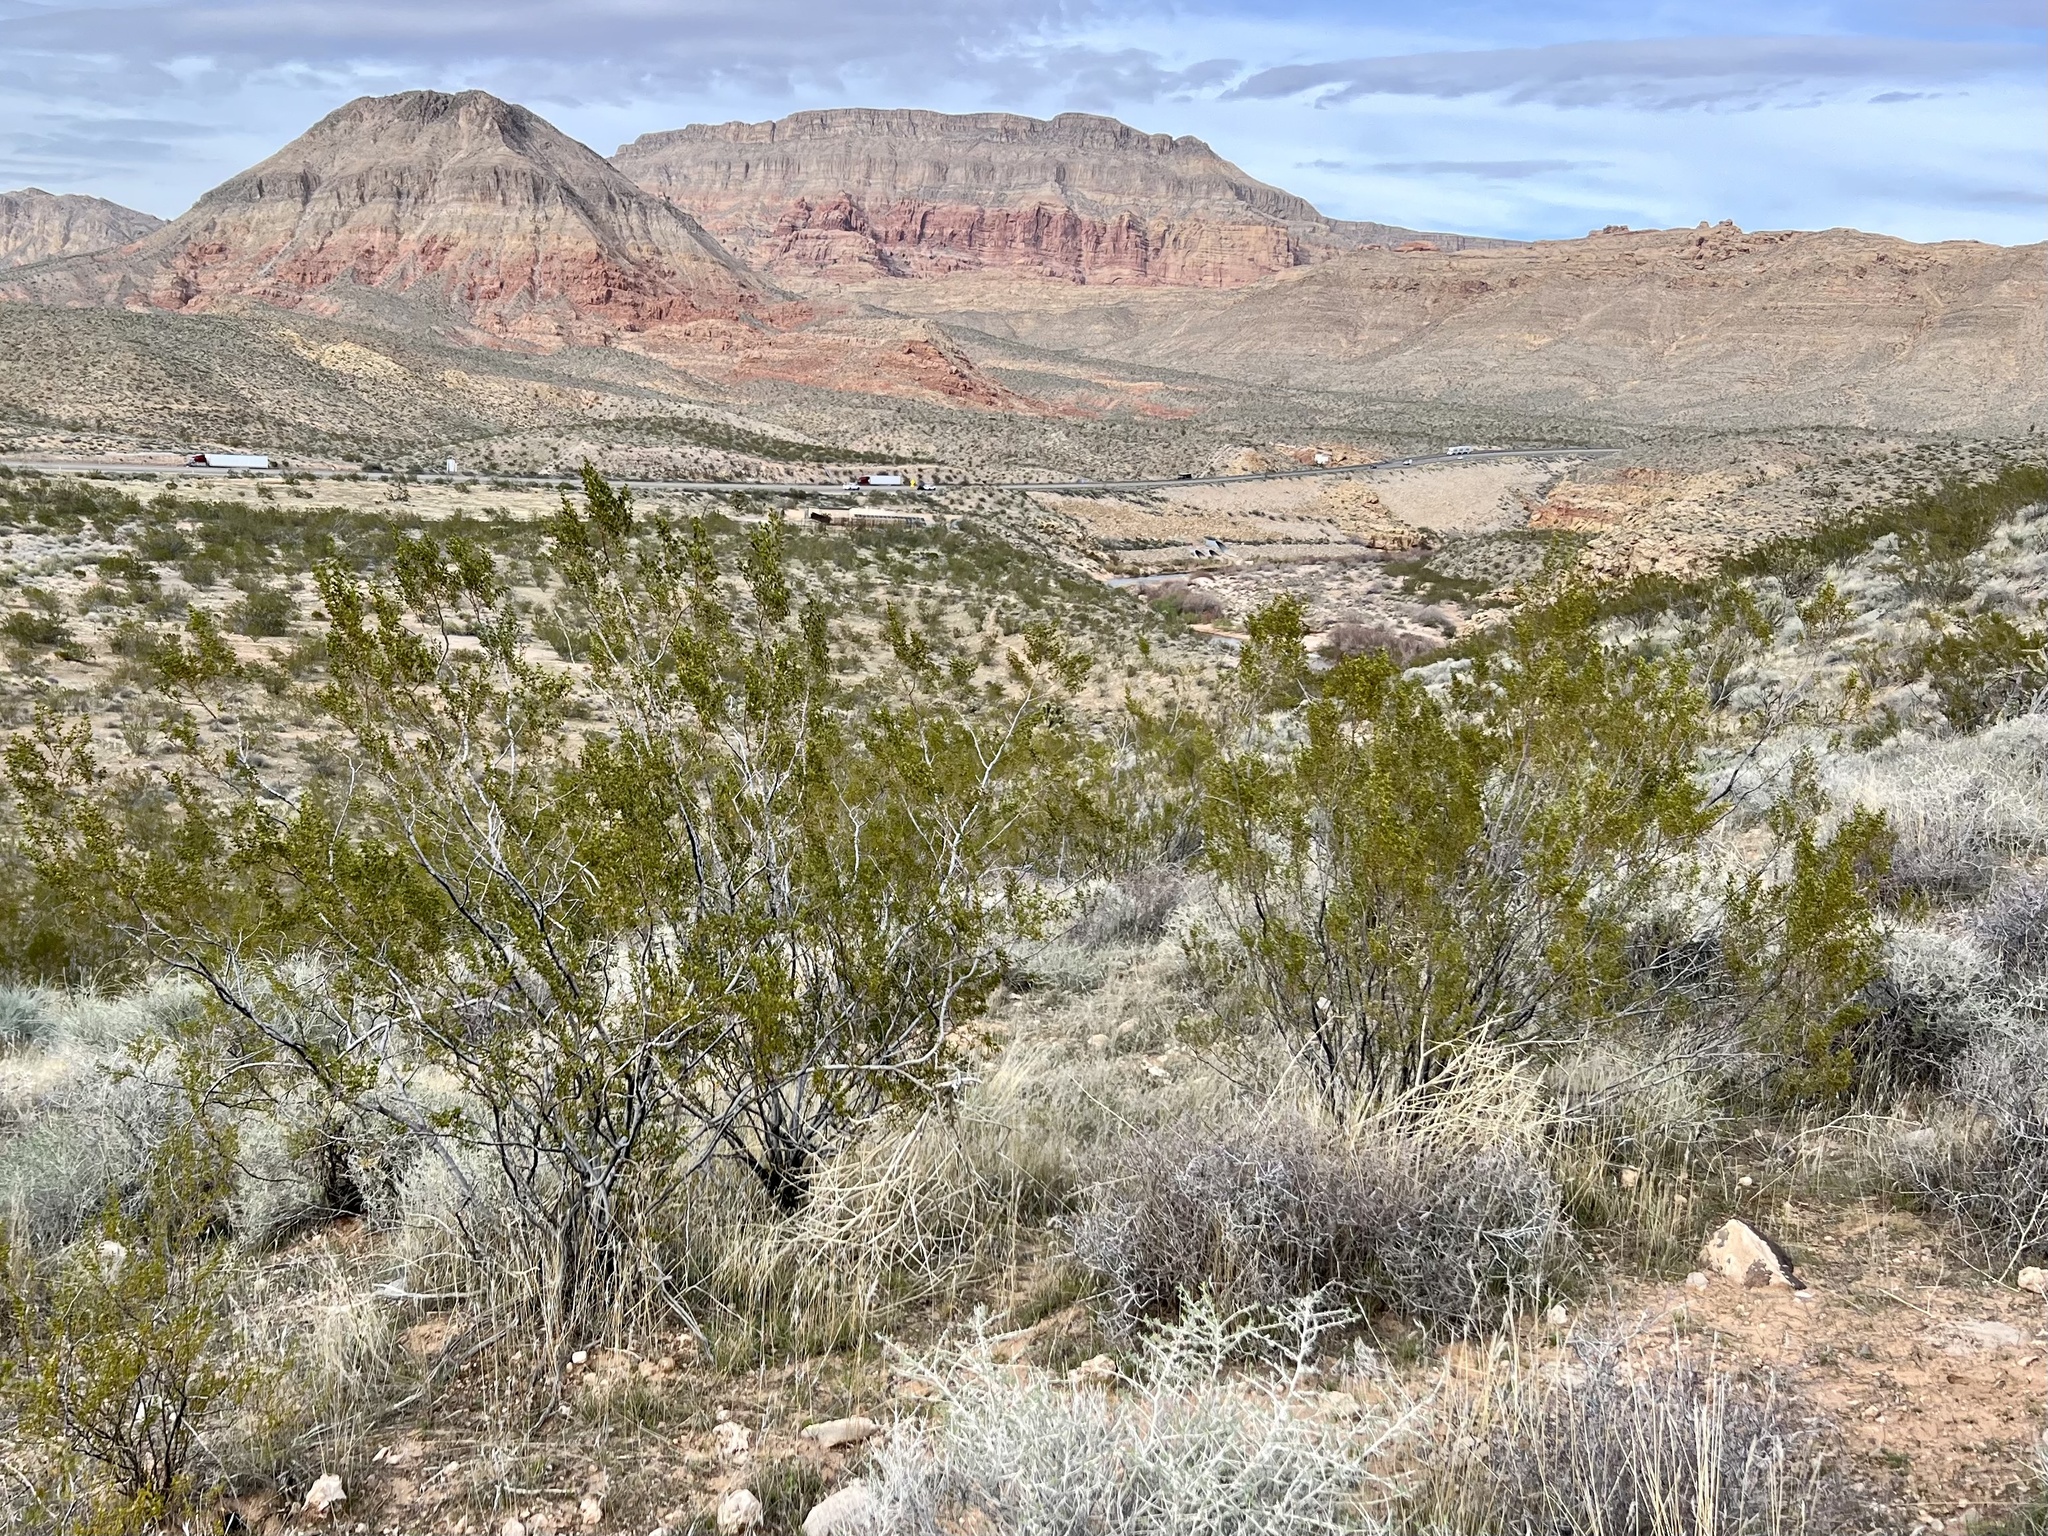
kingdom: Plantae
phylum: Tracheophyta
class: Magnoliopsida
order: Zygophyllales
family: Zygophyllaceae
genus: Larrea
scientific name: Larrea tridentata
